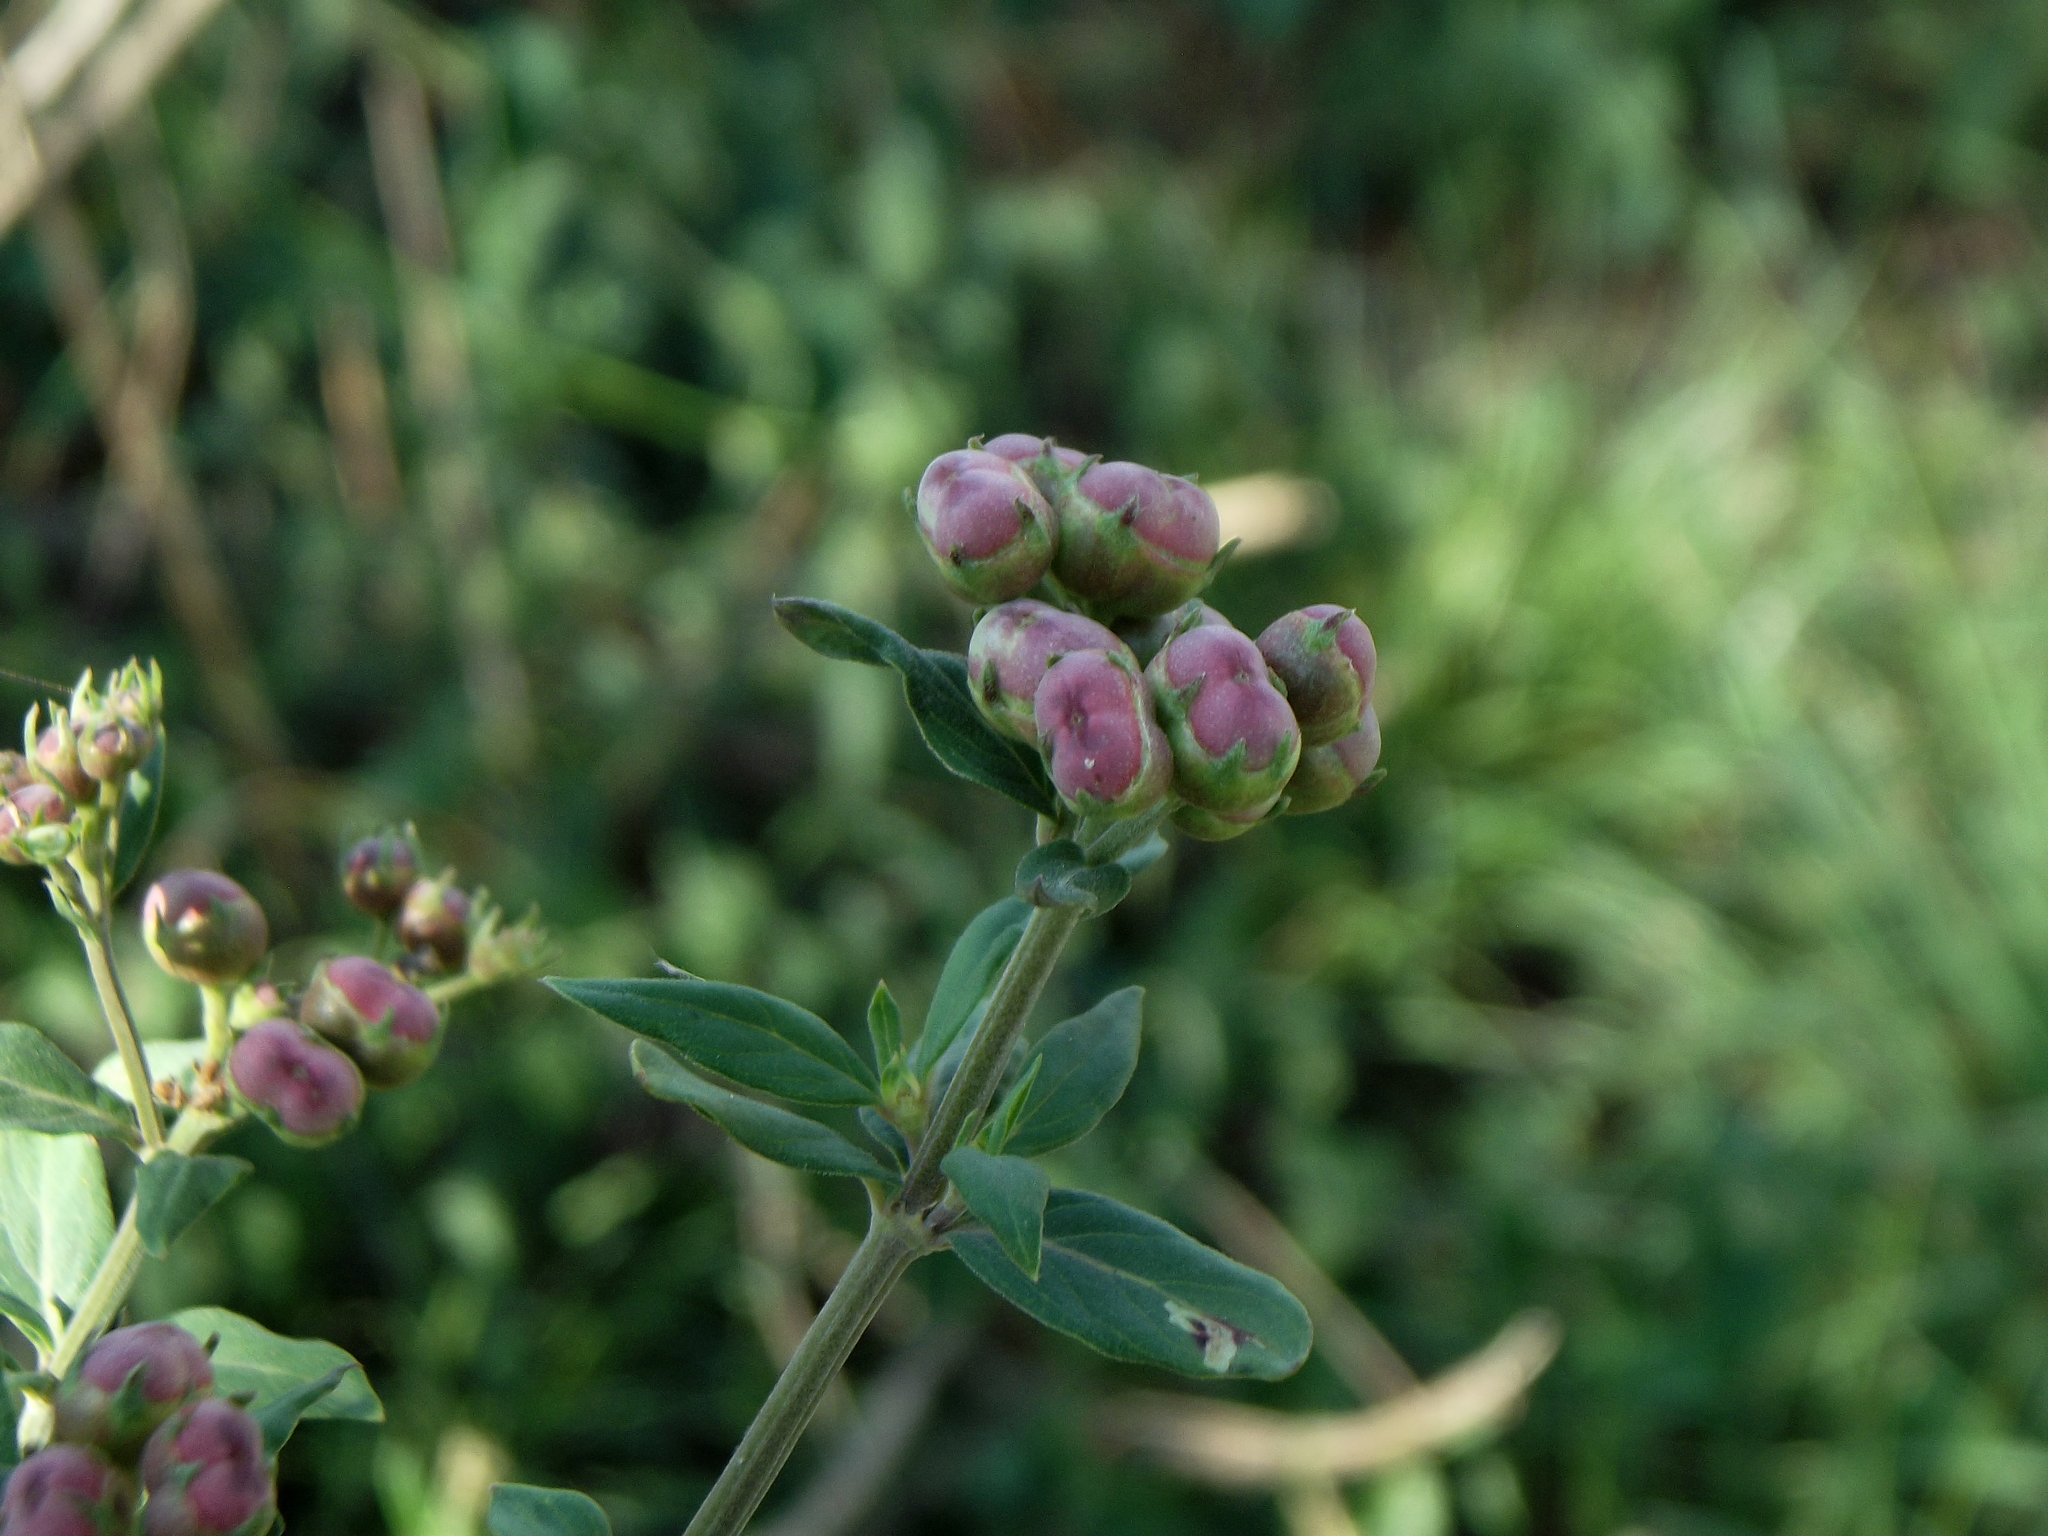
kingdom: Plantae
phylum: Tracheophyta
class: Magnoliopsida
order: Gentianales
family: Rubiaceae
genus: Bouvardia
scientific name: Bouvardia ternifolia
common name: Scarlet bouvardia
